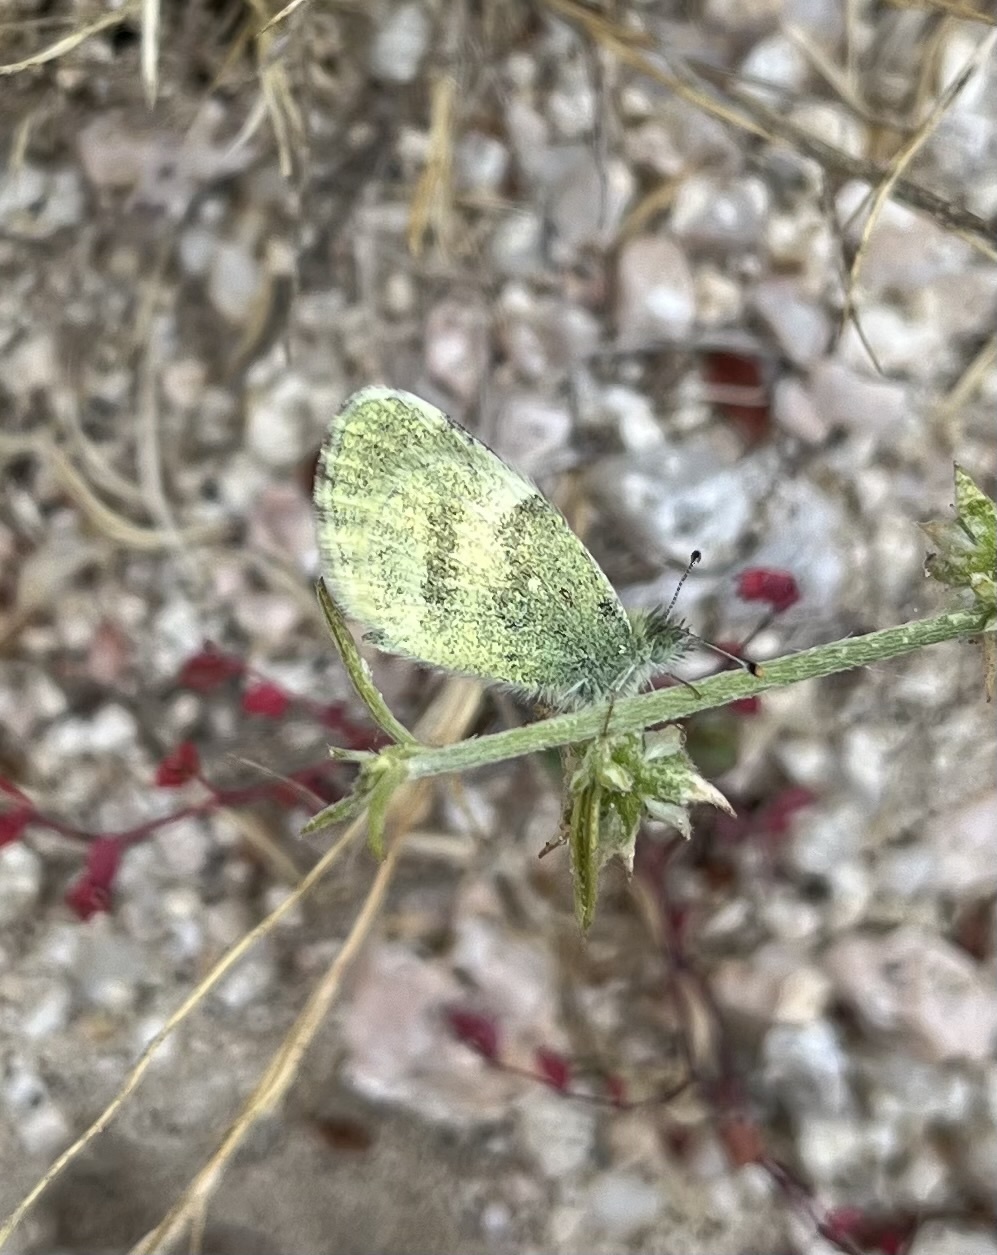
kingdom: Animalia
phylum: Arthropoda
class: Insecta
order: Lepidoptera
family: Pieridae
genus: Nathalis
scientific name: Nathalis iole
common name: Dainty sulphur
